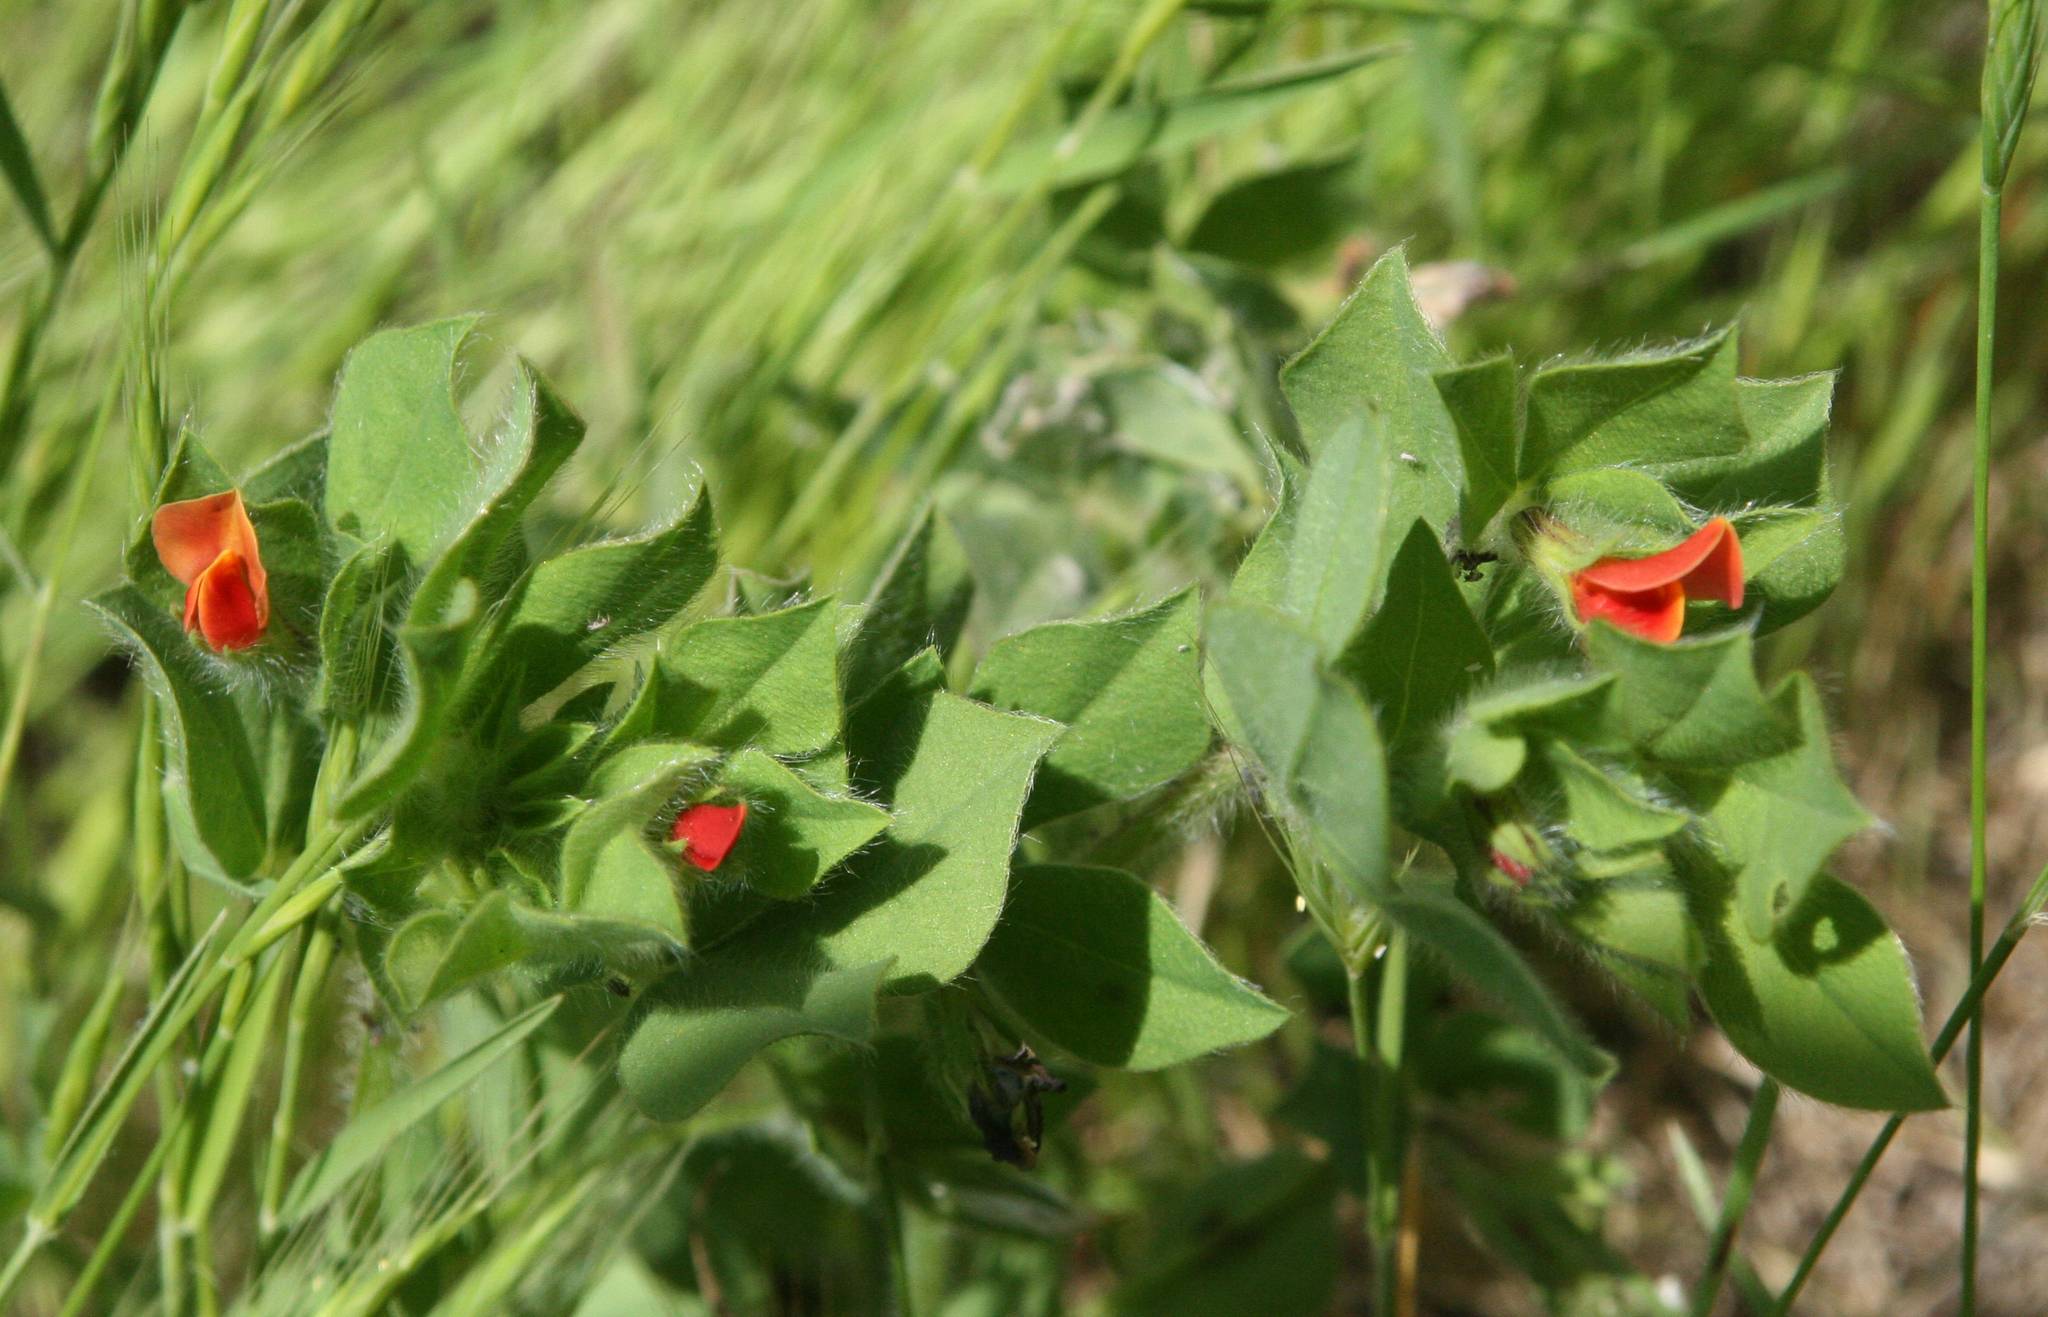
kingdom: Plantae
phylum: Tracheophyta
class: Magnoliopsida
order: Fabales
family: Fabaceae
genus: Lotus
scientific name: Lotus tetragonolobus
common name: Asparagus-pea
